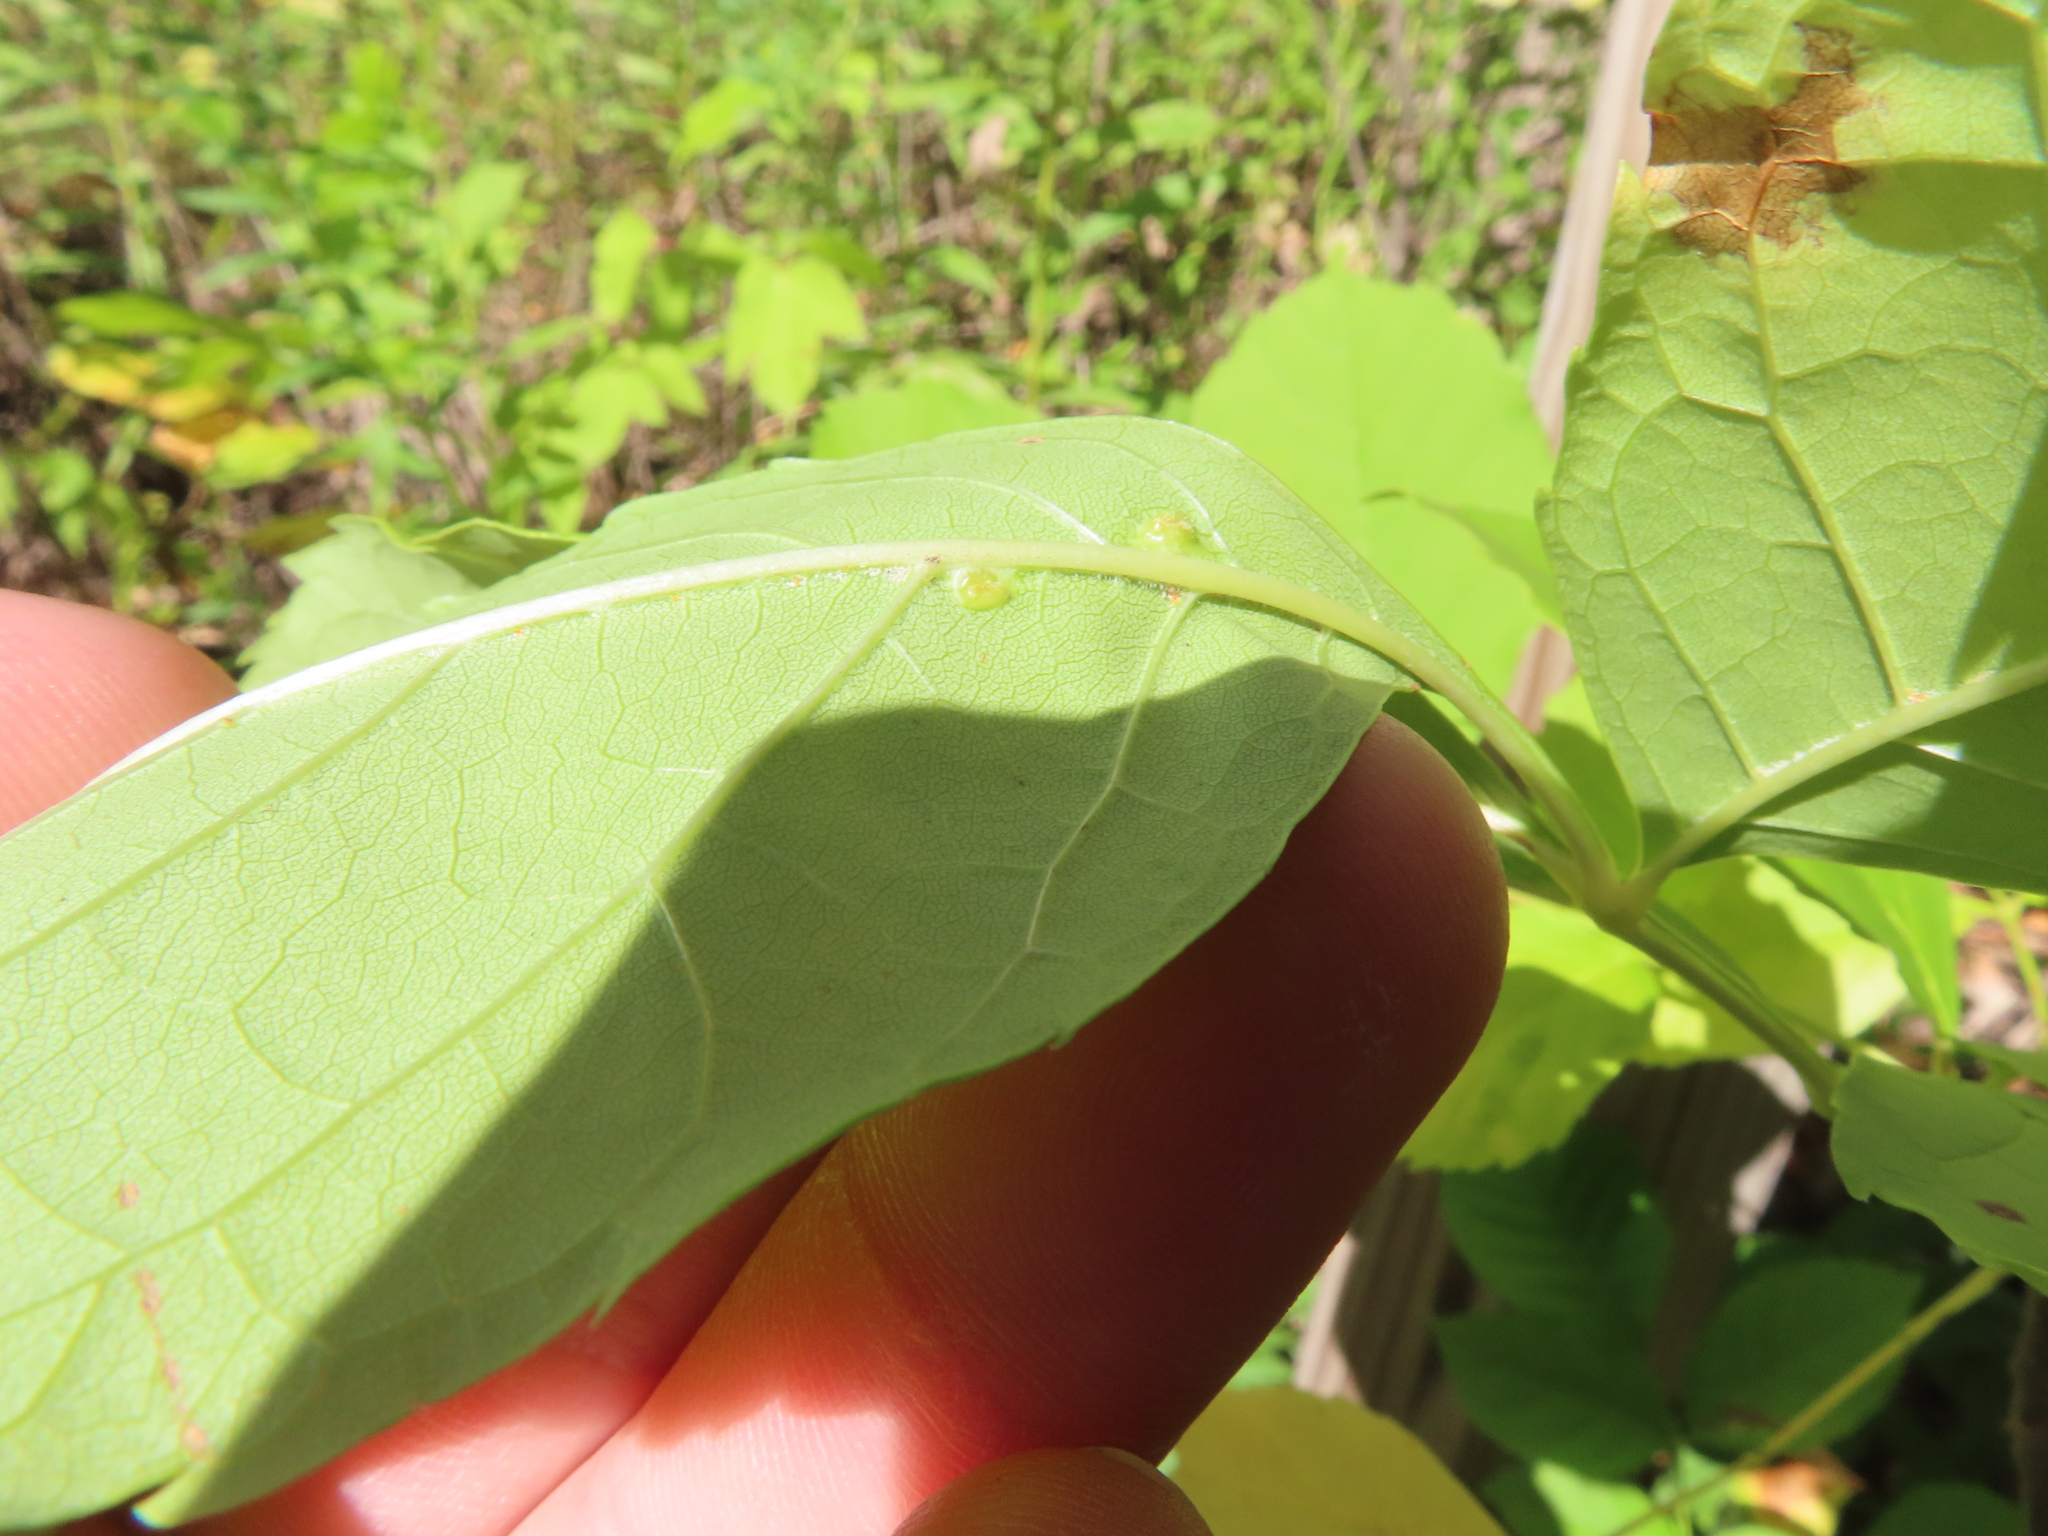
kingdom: Animalia
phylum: Arthropoda
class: Insecta
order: Diptera
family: Cecidomyiidae
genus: Dasineura
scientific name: Dasineura pellex
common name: Ash bullet gall midge
